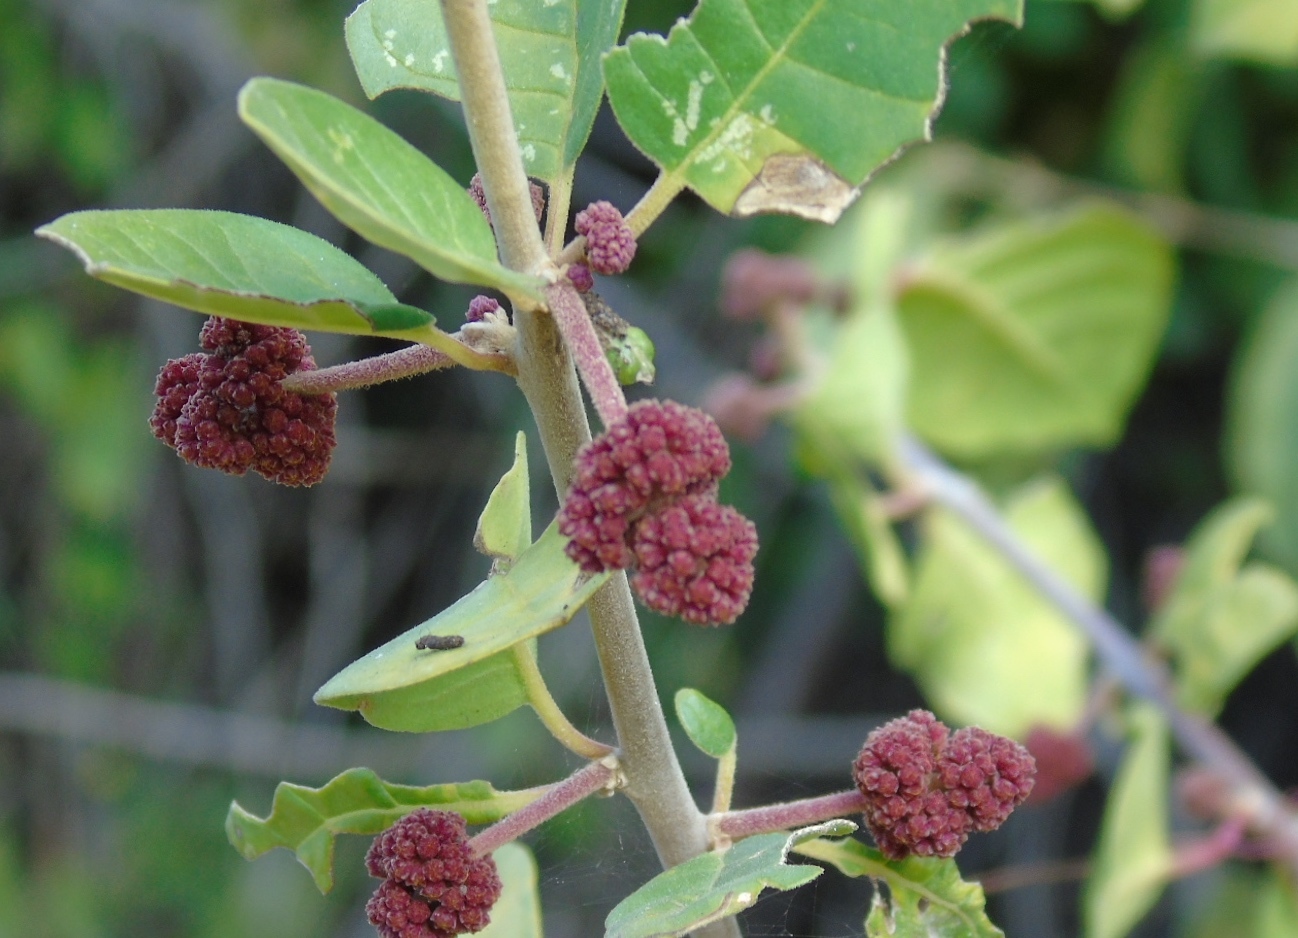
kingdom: Plantae
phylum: Tracheophyta
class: Magnoliopsida
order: Caryophyllales
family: Nyctaginaceae
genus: Pisonia
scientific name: Pisonia capitata
